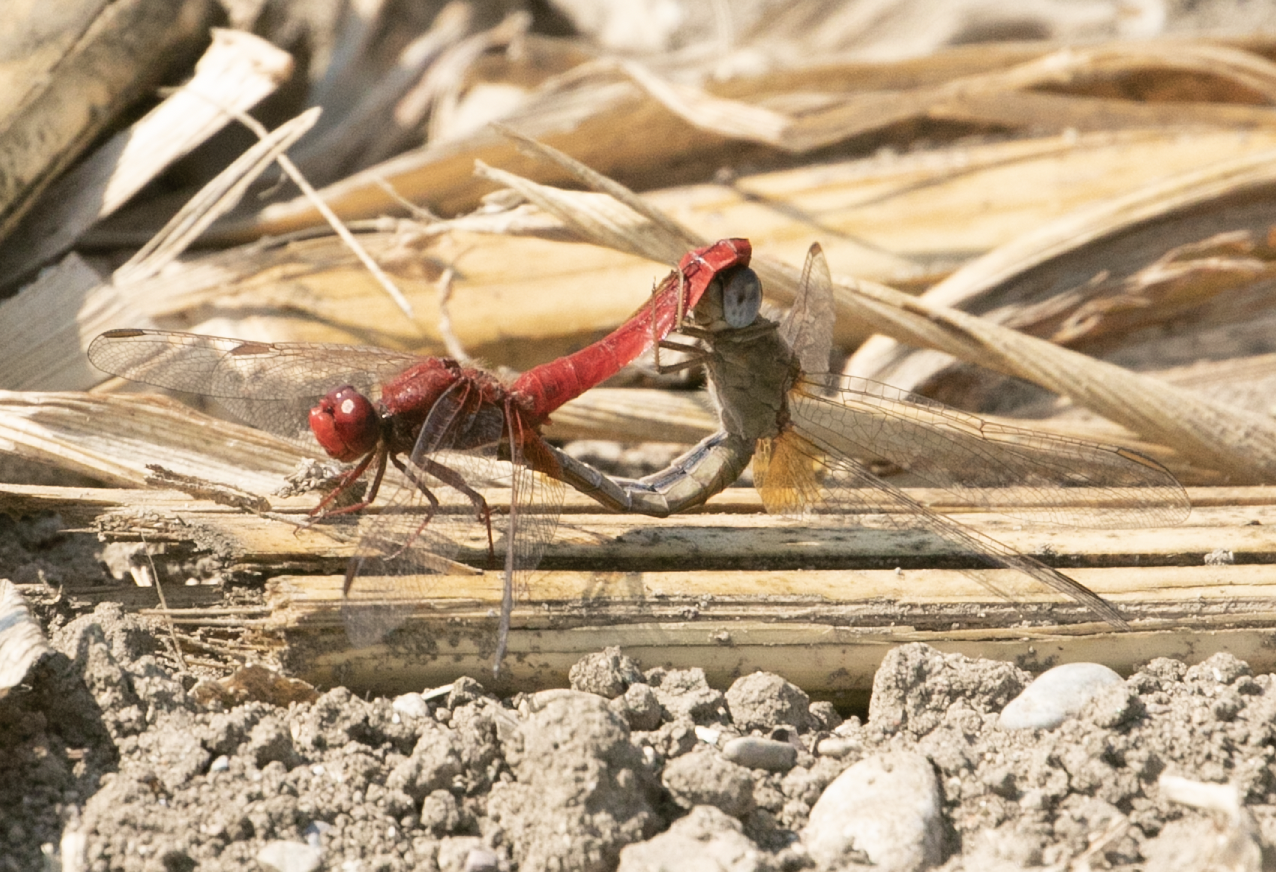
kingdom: Animalia
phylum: Arthropoda
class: Insecta
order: Odonata
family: Libellulidae
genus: Crocothemis
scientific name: Crocothemis erythraea
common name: Scarlet dragonfly
